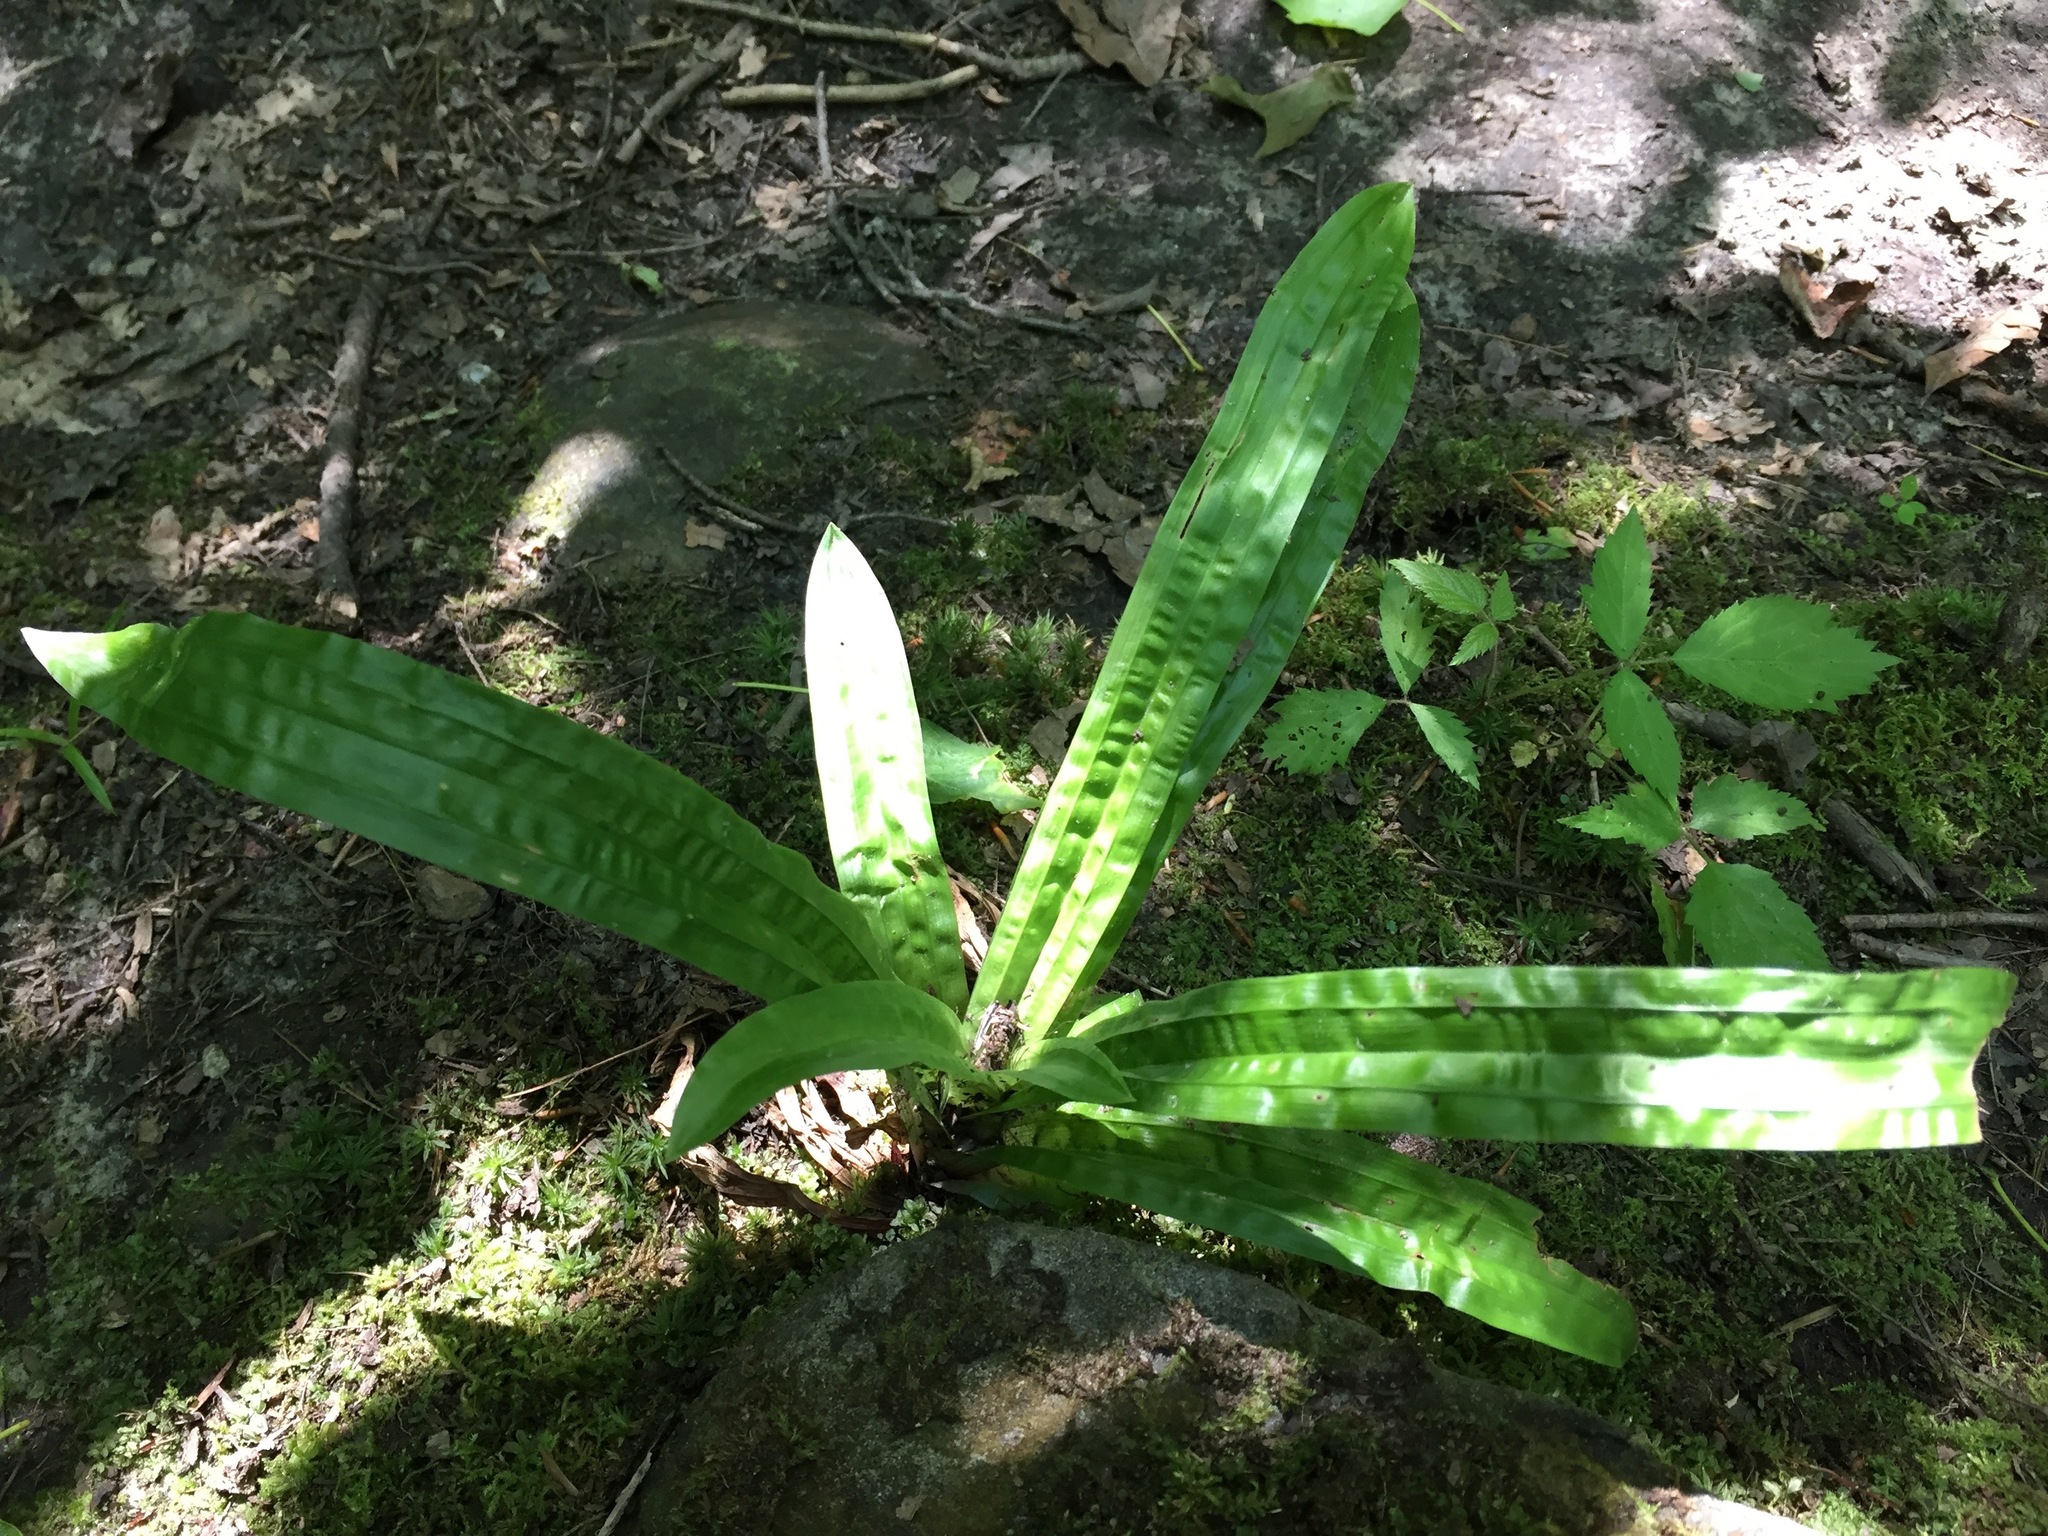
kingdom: Plantae
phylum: Tracheophyta
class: Liliopsida
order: Poales
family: Cyperaceae
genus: Carex
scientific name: Carex plantaginea
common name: Plantain-leaved sedge
